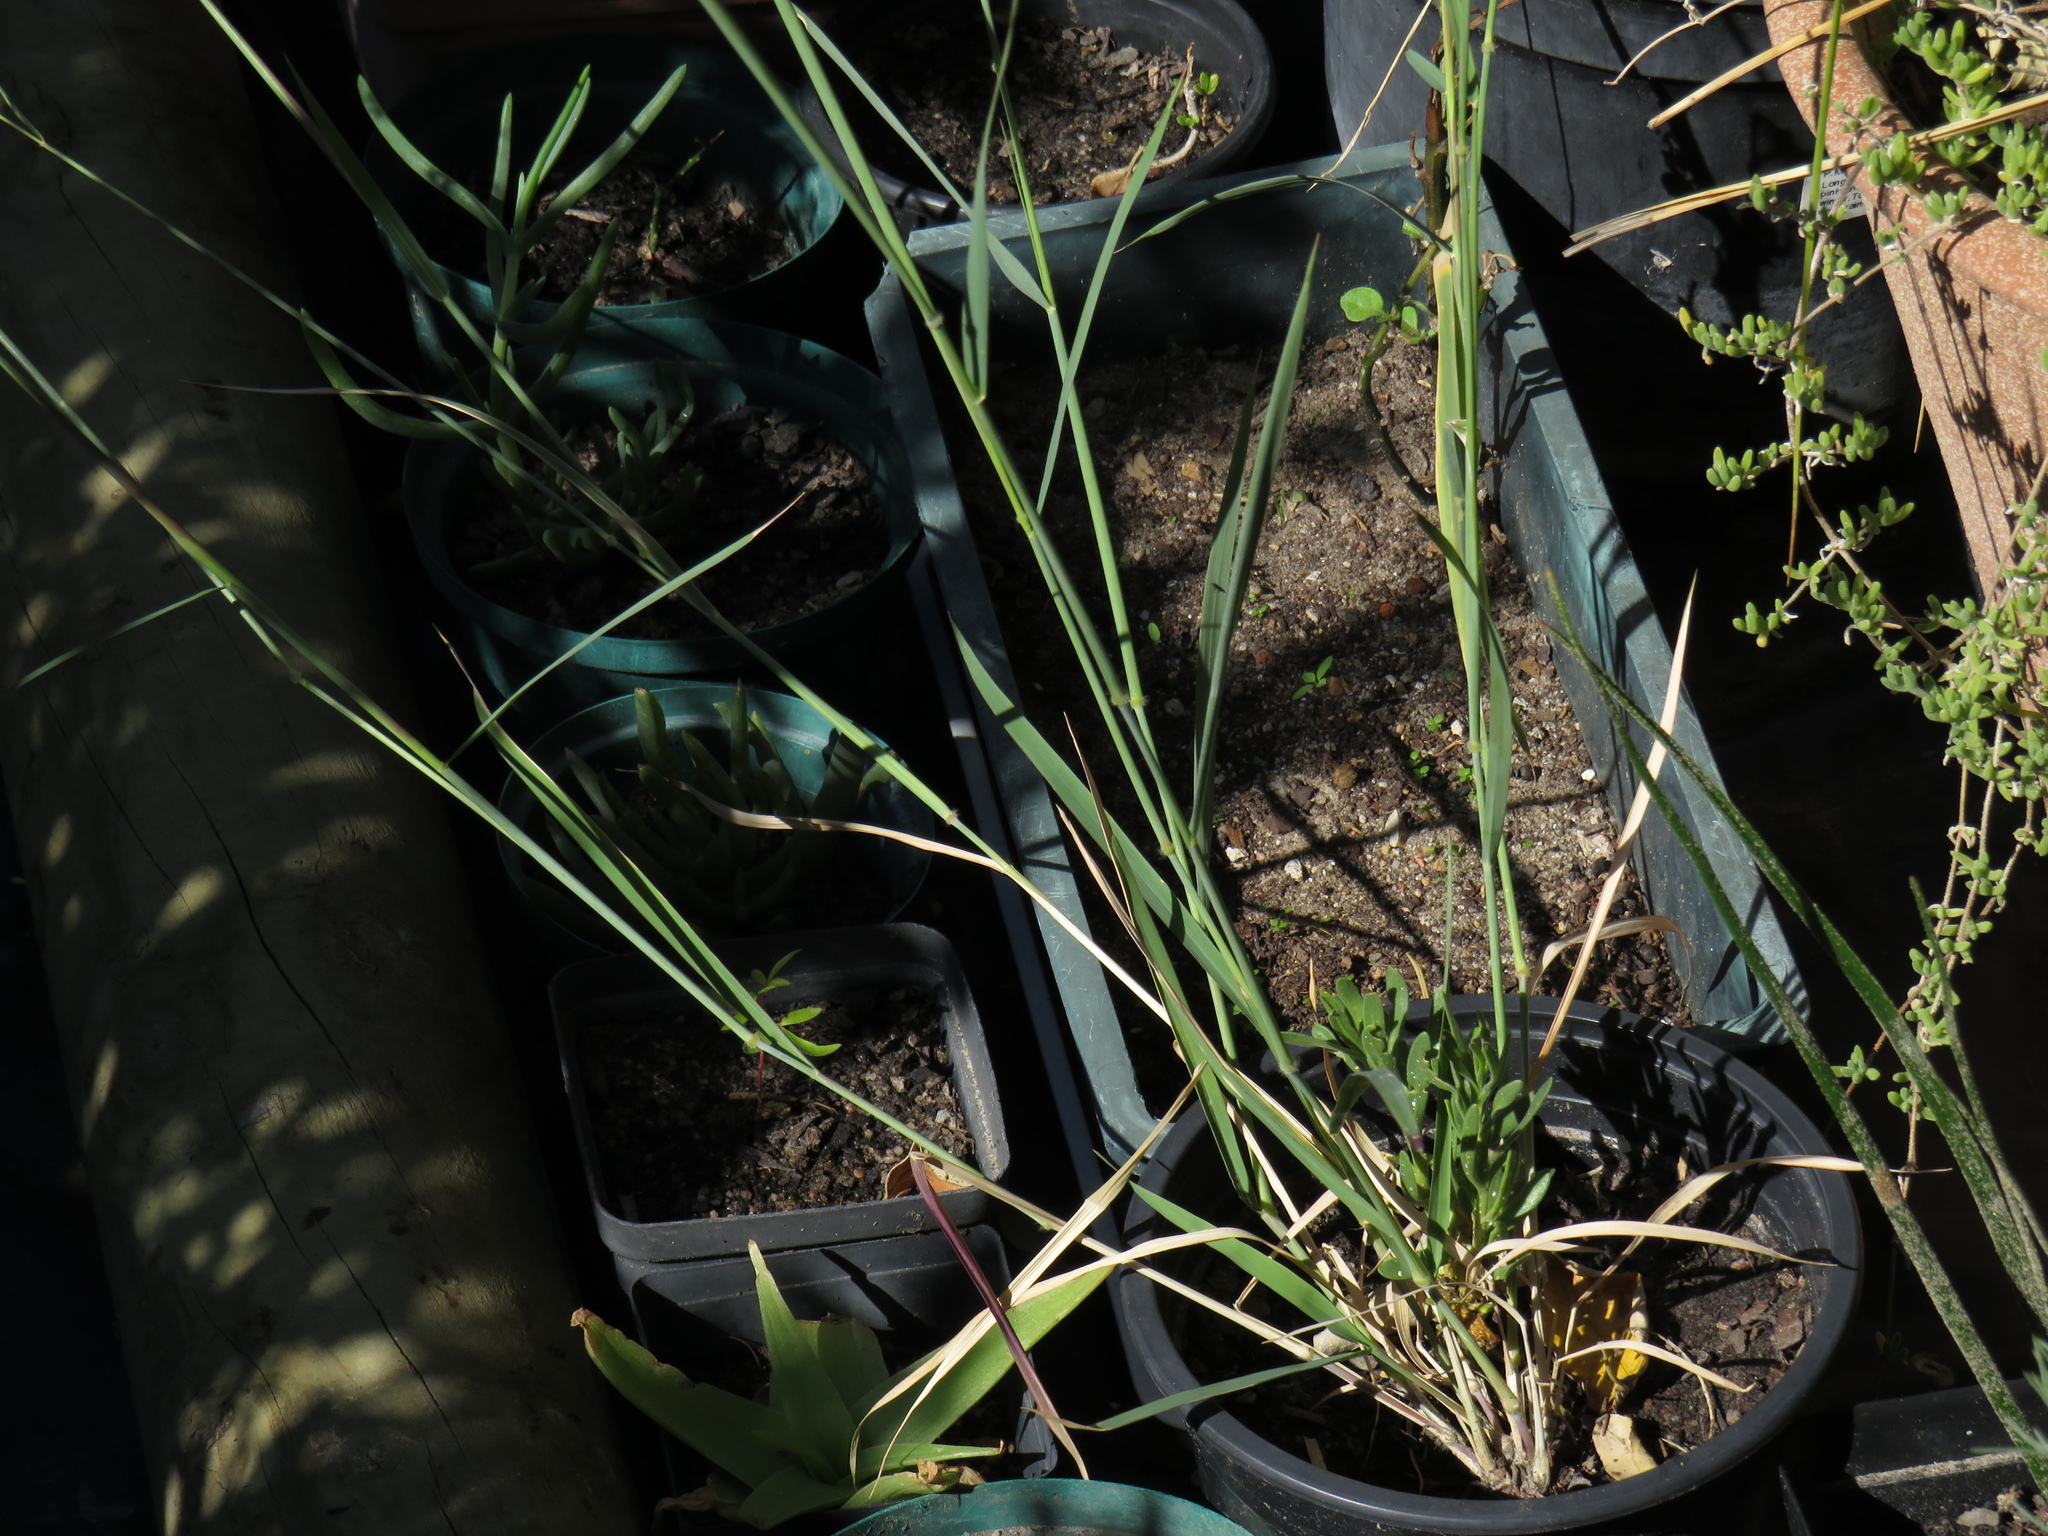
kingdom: Plantae
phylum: Tracheophyta
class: Liliopsida
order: Poales
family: Poaceae
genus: Melinis
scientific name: Melinis repens
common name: Rose natal grass
